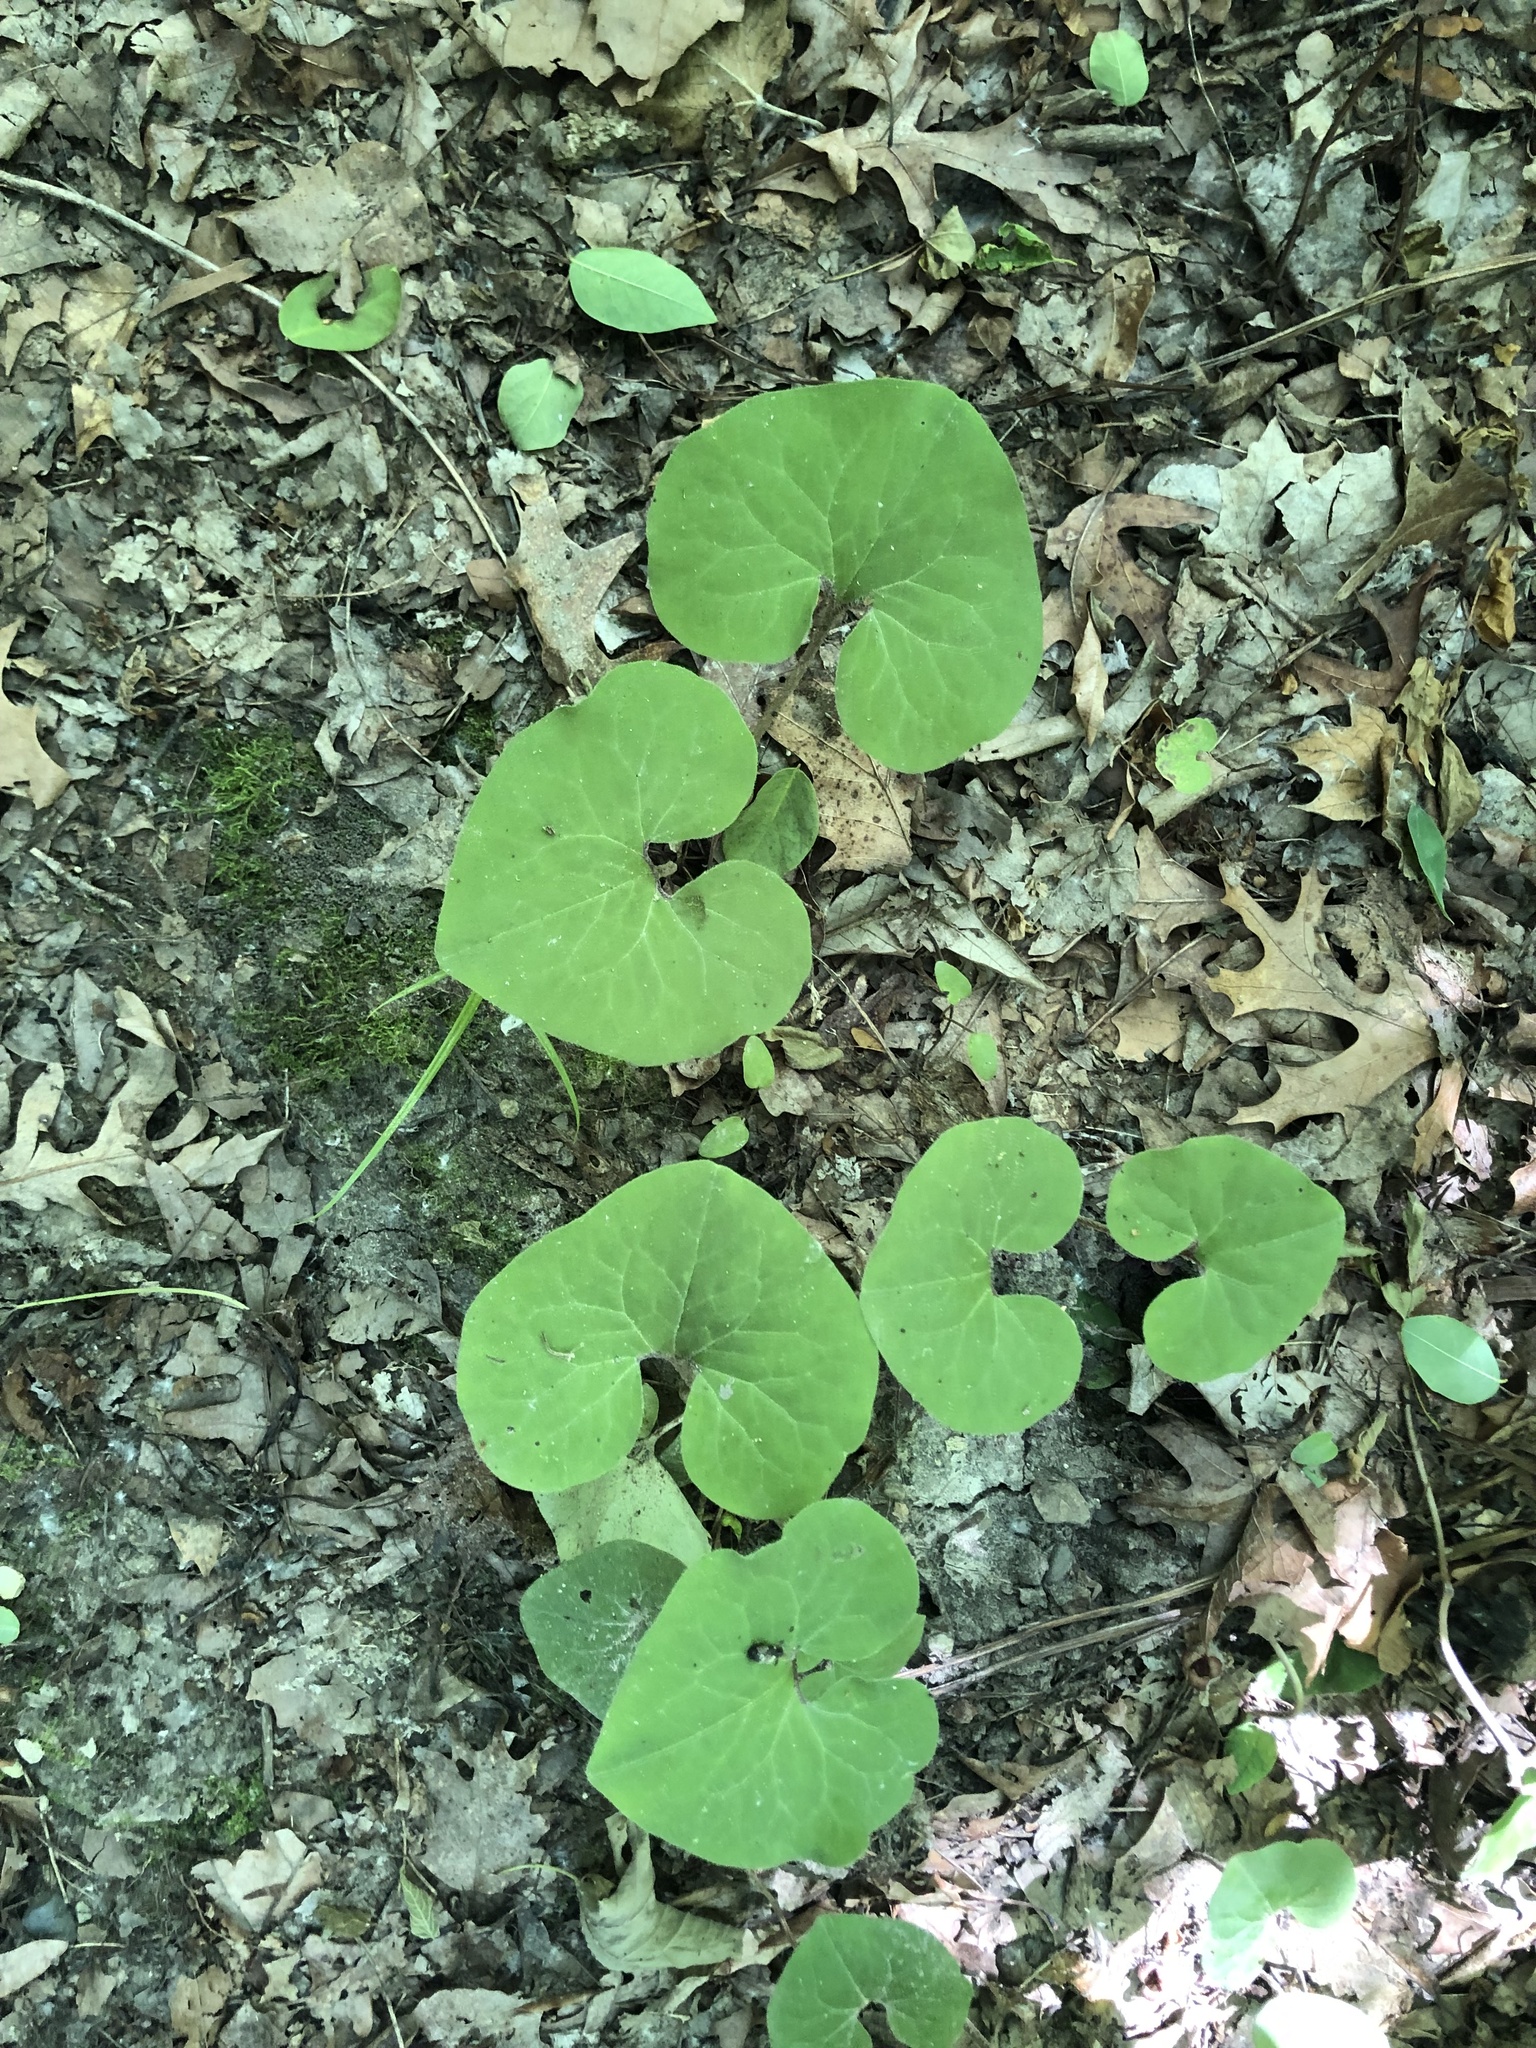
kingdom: Plantae
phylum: Tracheophyta
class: Magnoliopsida
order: Piperales
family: Aristolochiaceae
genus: Asarum
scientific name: Asarum canadense
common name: Wild ginger
